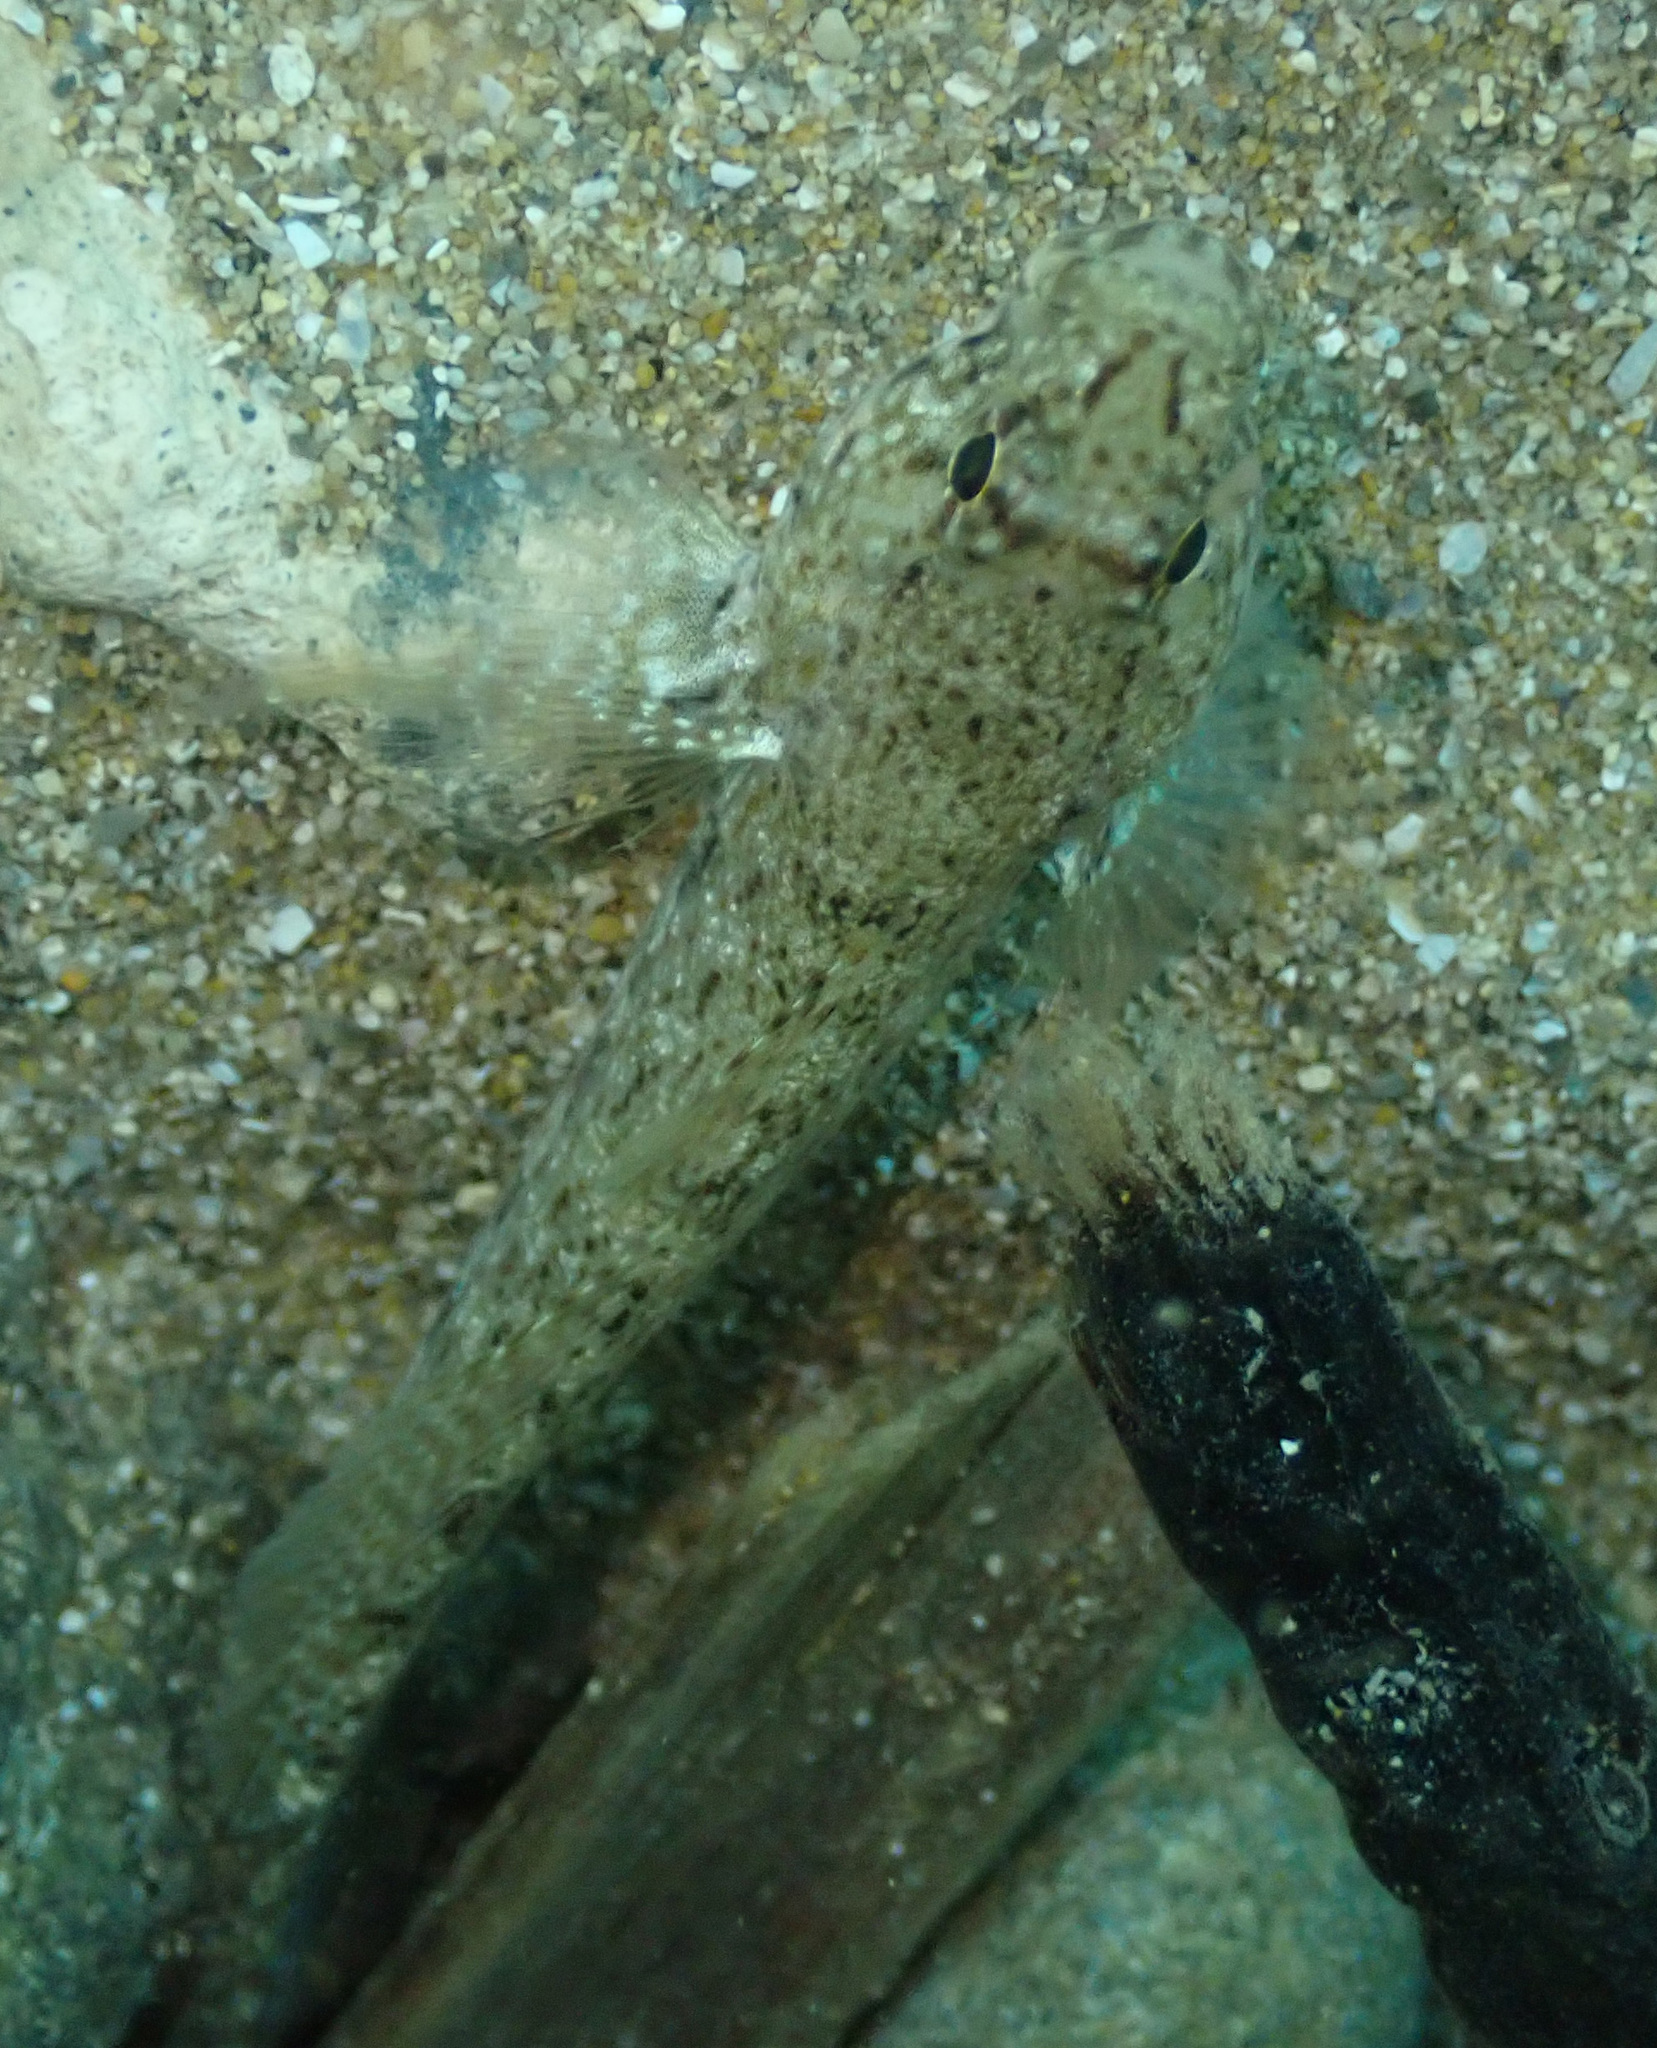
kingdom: Animalia
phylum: Chordata
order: Perciformes
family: Gobiidae
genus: Gobius
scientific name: Gobius incognitus
